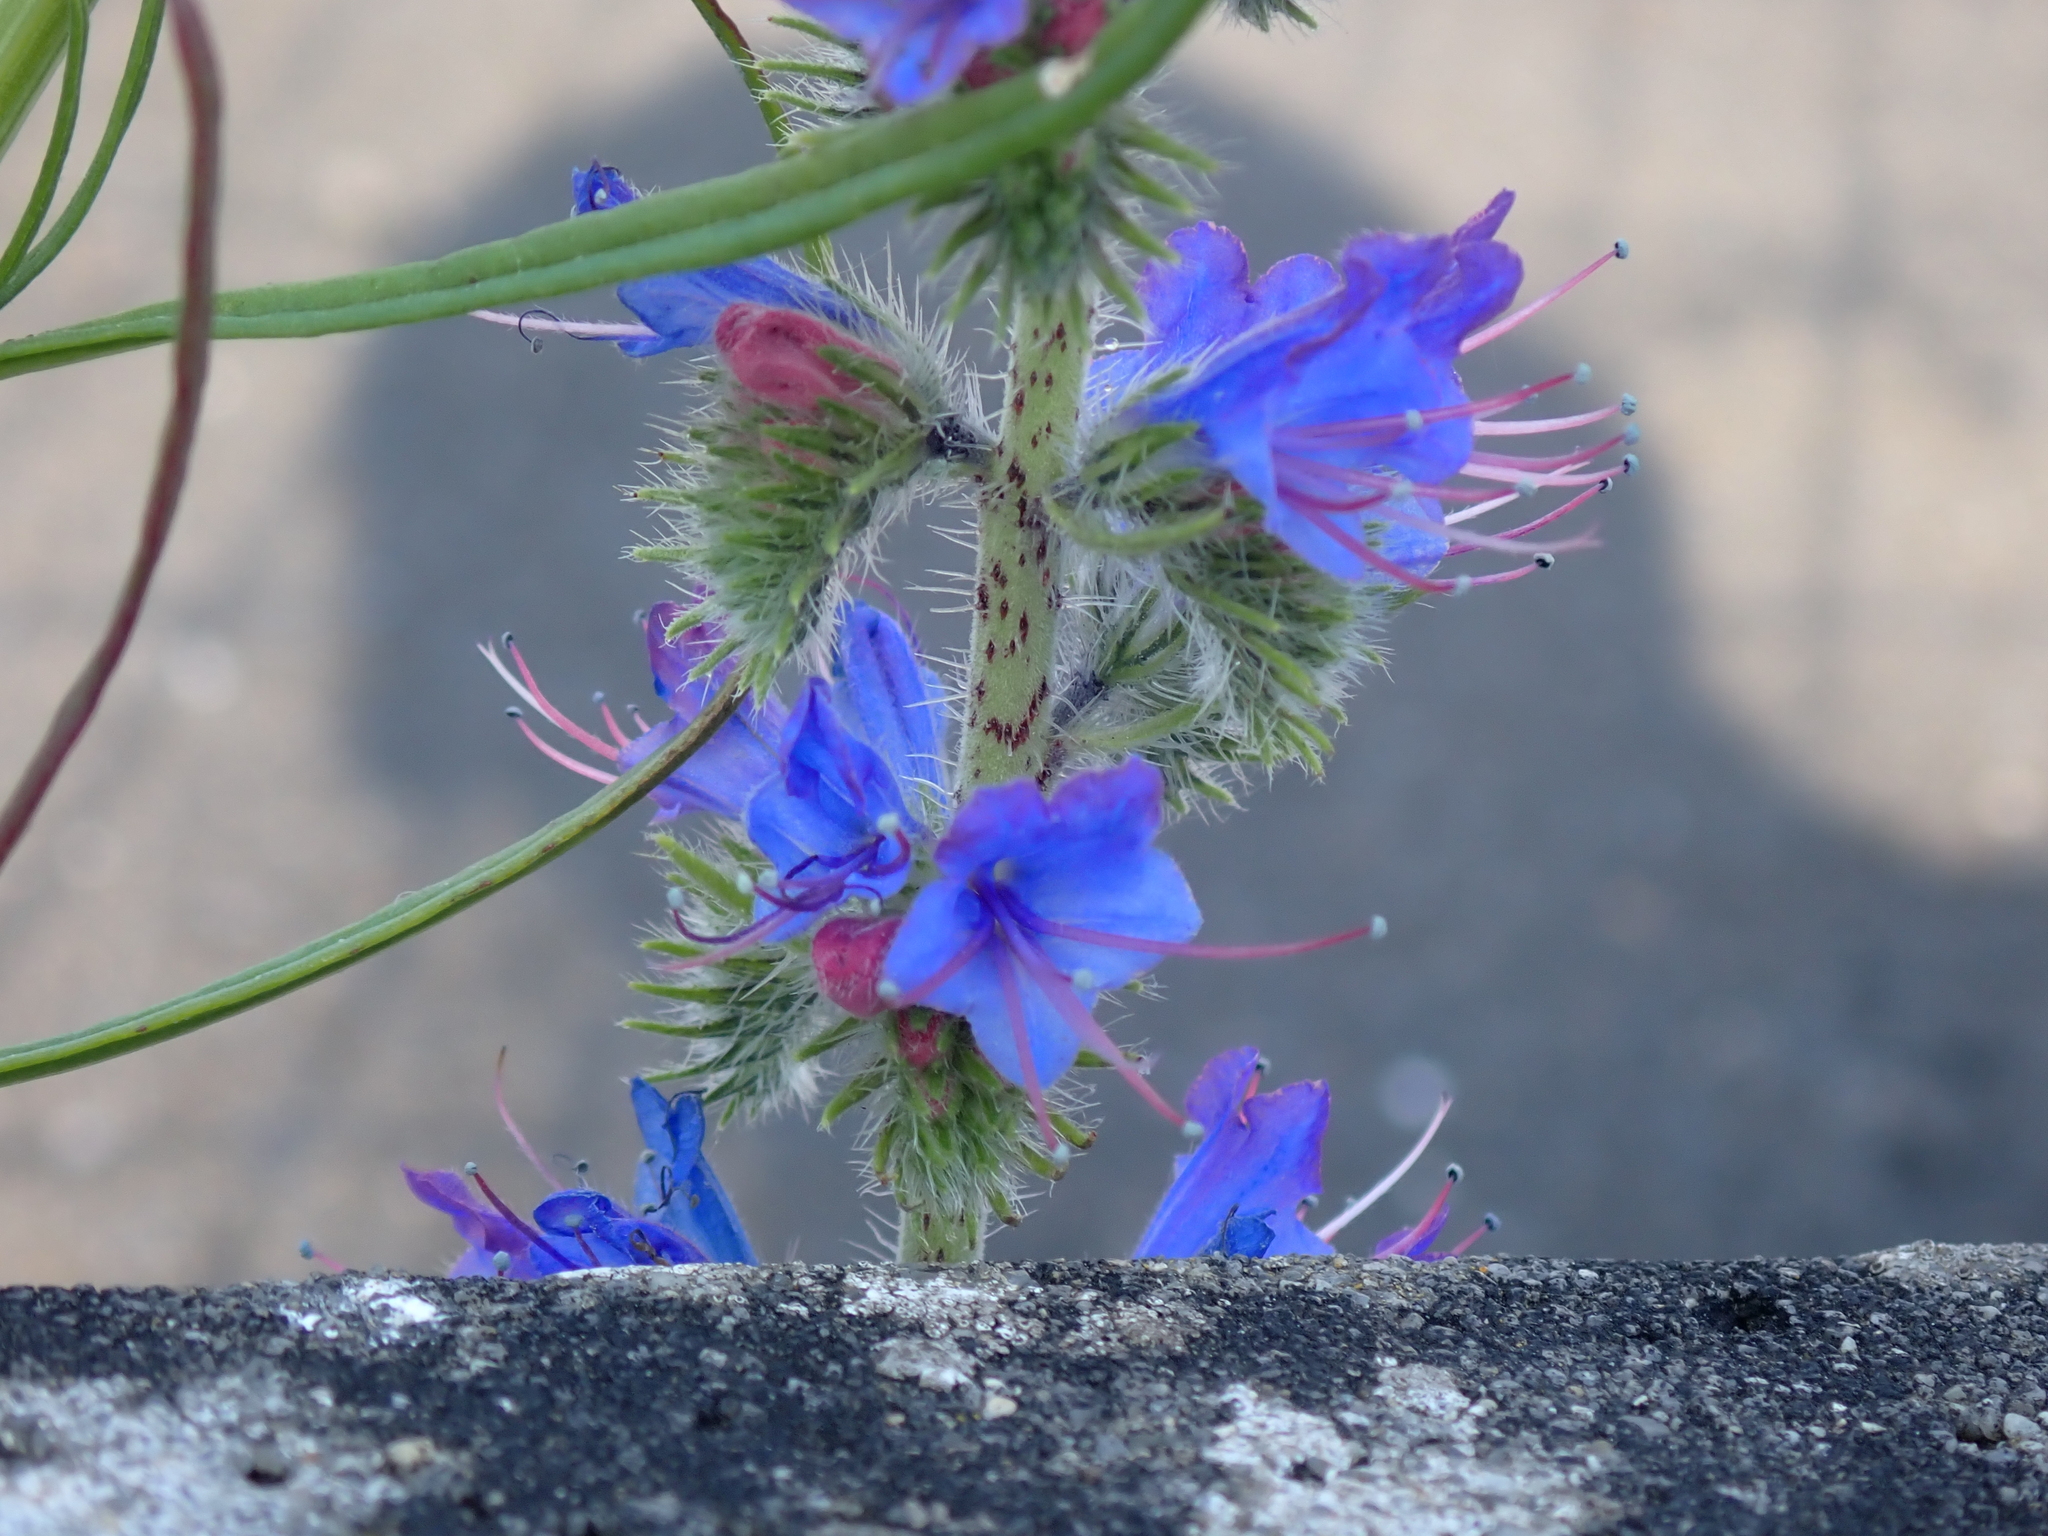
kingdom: Plantae
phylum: Tracheophyta
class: Magnoliopsida
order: Boraginales
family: Boraginaceae
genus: Echium
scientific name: Echium vulgare
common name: Common viper's bugloss
